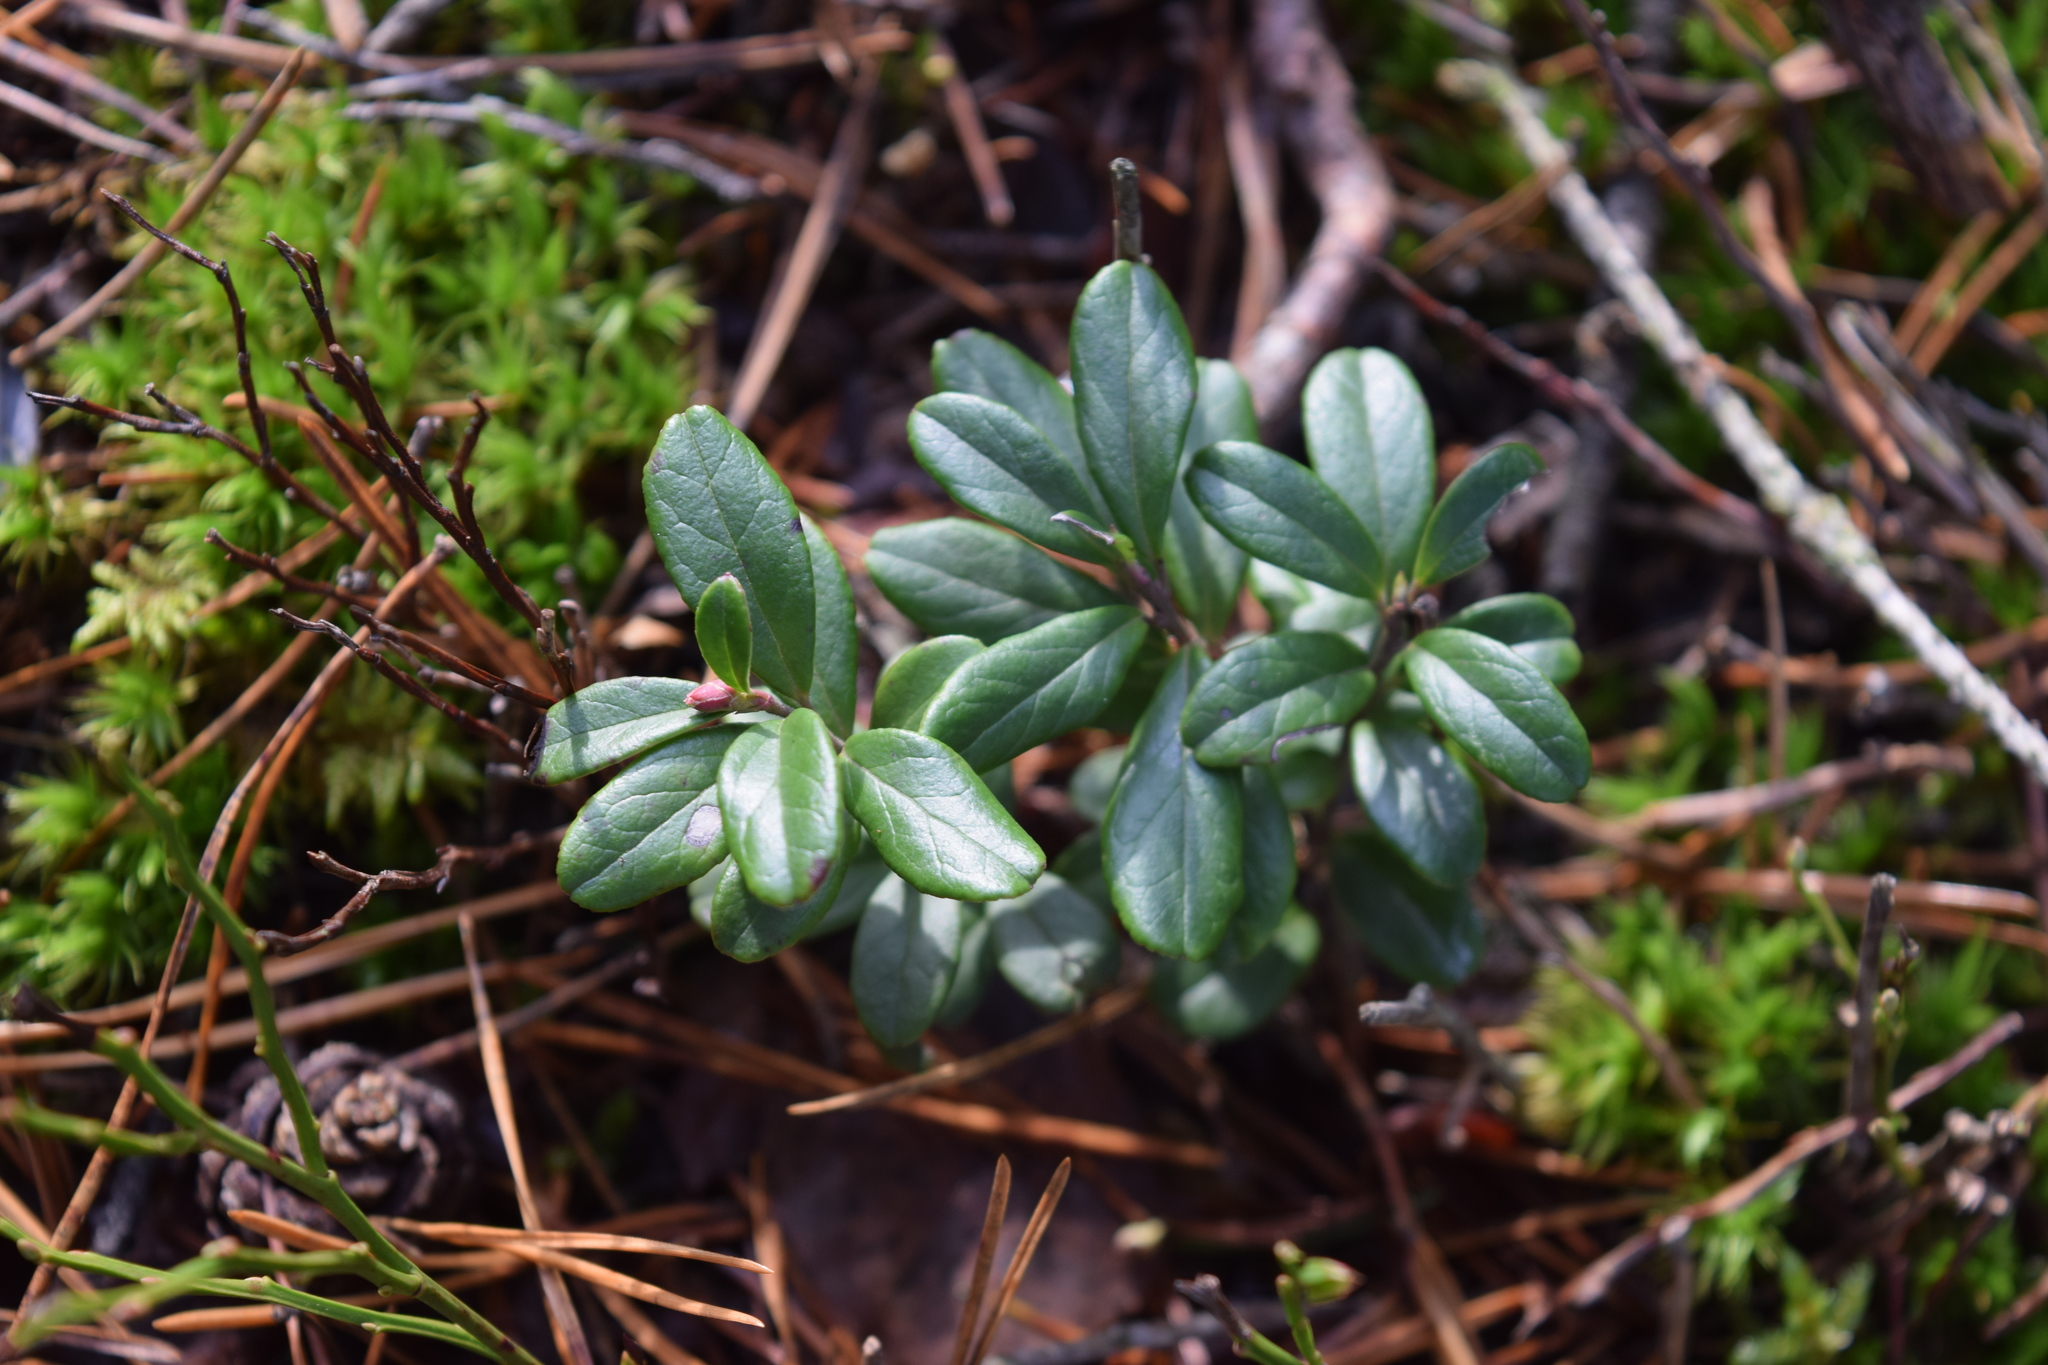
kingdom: Plantae
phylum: Tracheophyta
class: Magnoliopsida
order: Ericales
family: Ericaceae
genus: Vaccinium
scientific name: Vaccinium vitis-idaea
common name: Cowberry
